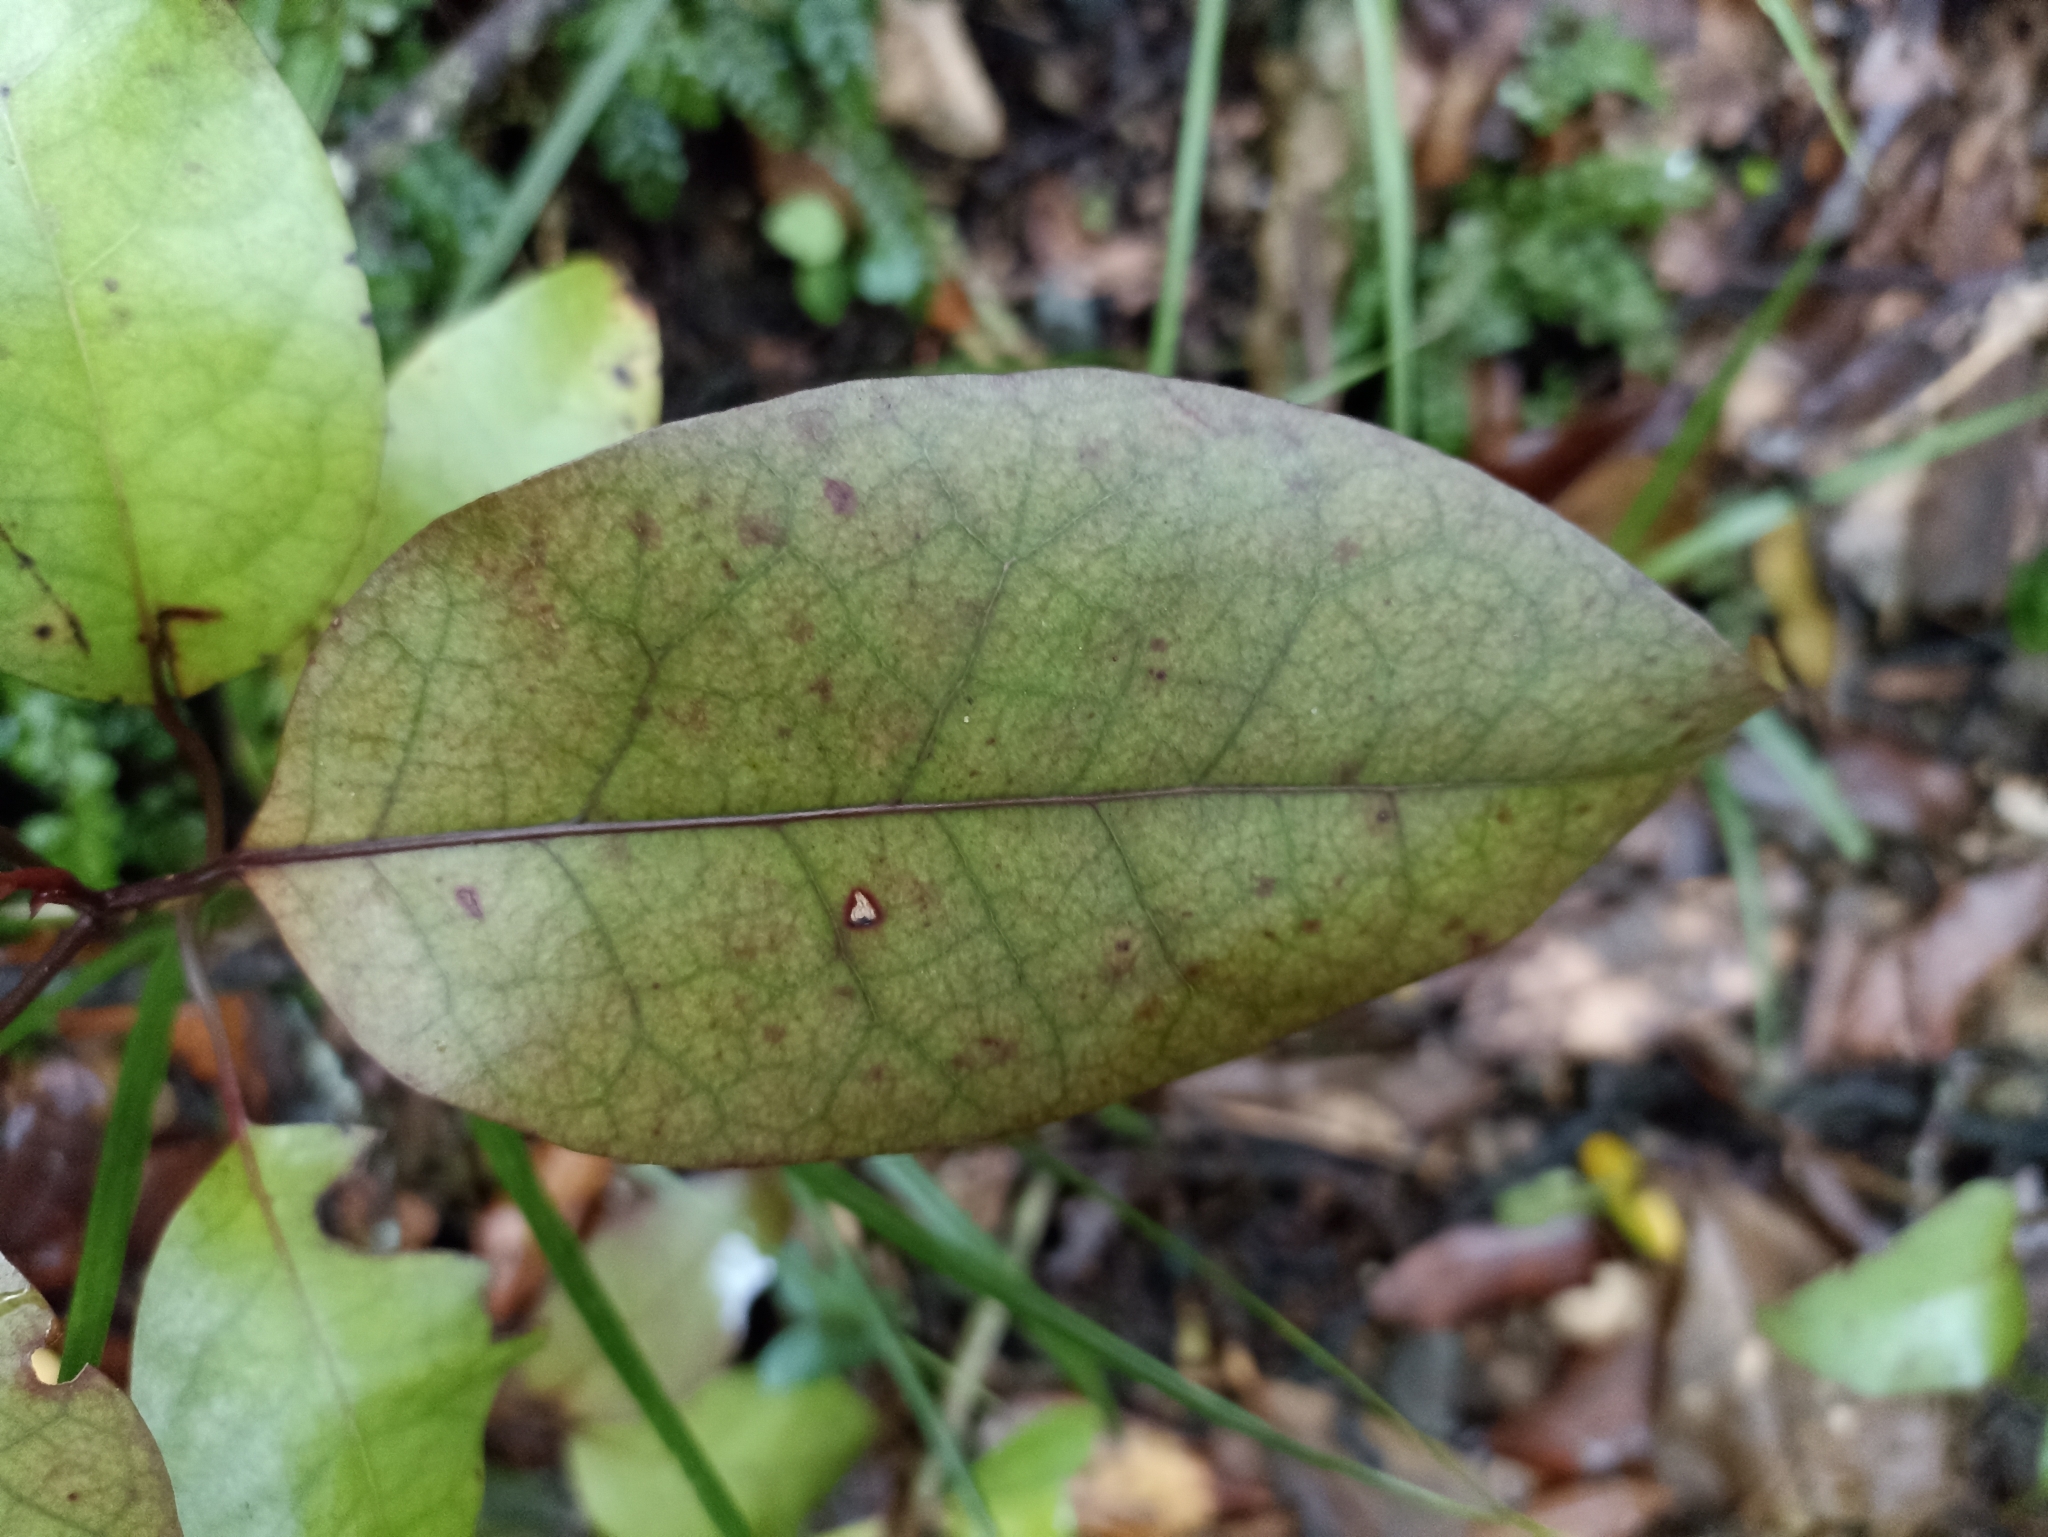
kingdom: Plantae
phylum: Tracheophyta
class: Magnoliopsida
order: Laurales
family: Lauraceae
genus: Litsea
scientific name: Litsea calicaris
